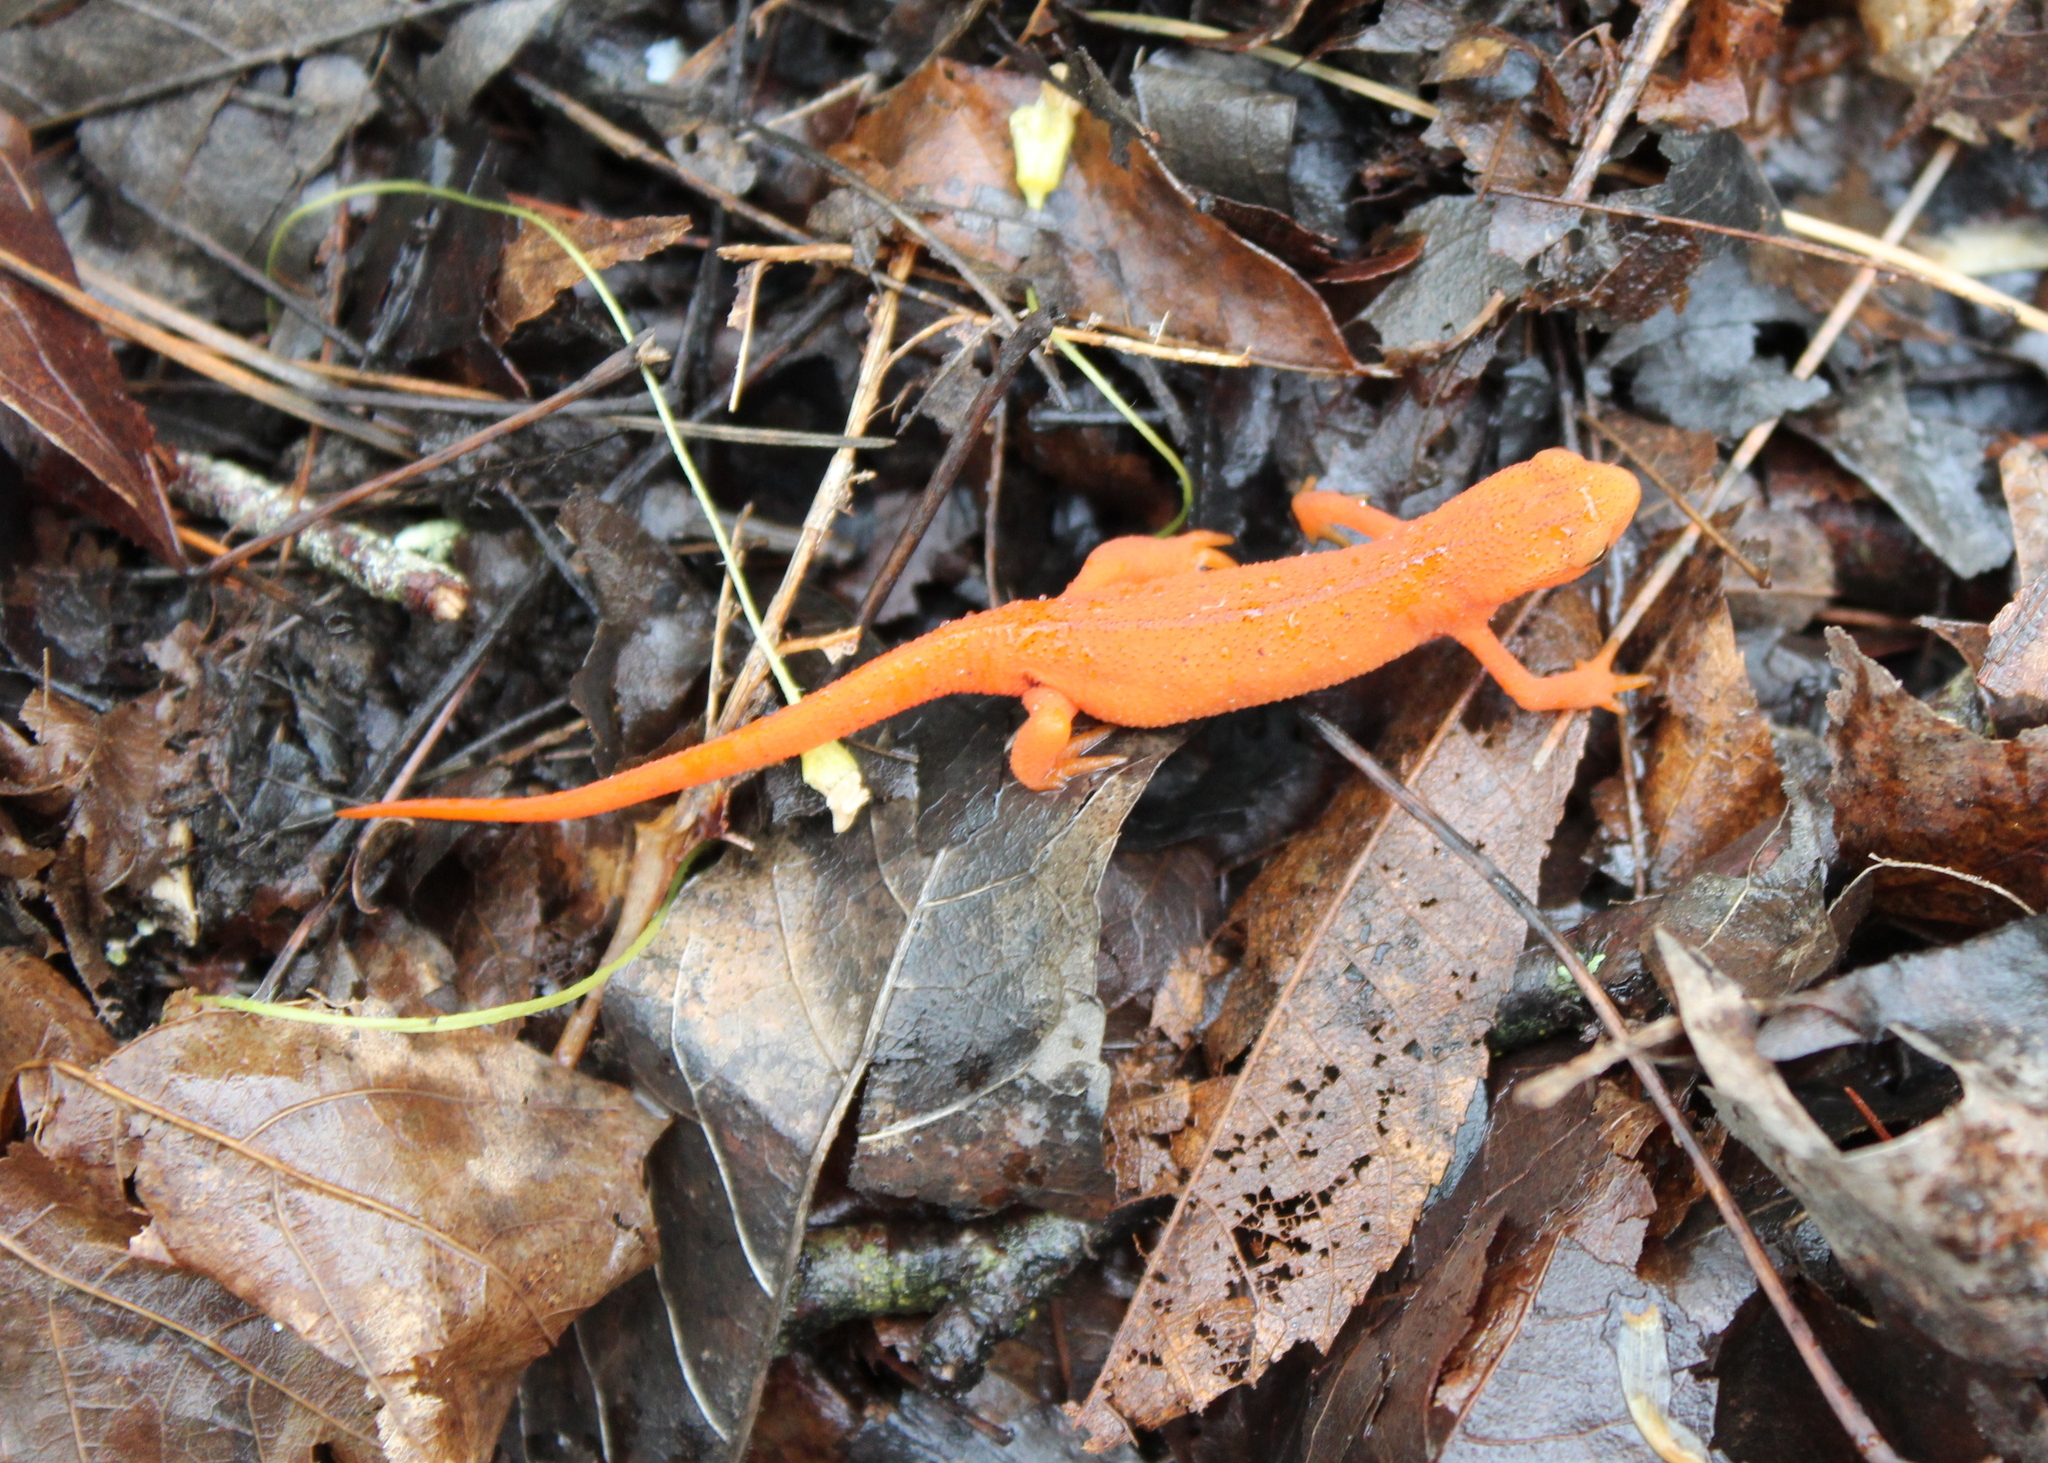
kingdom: Animalia
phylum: Chordata
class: Amphibia
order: Caudata
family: Salamandridae
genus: Notophthalmus
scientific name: Notophthalmus viridescens
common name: Eastern newt
